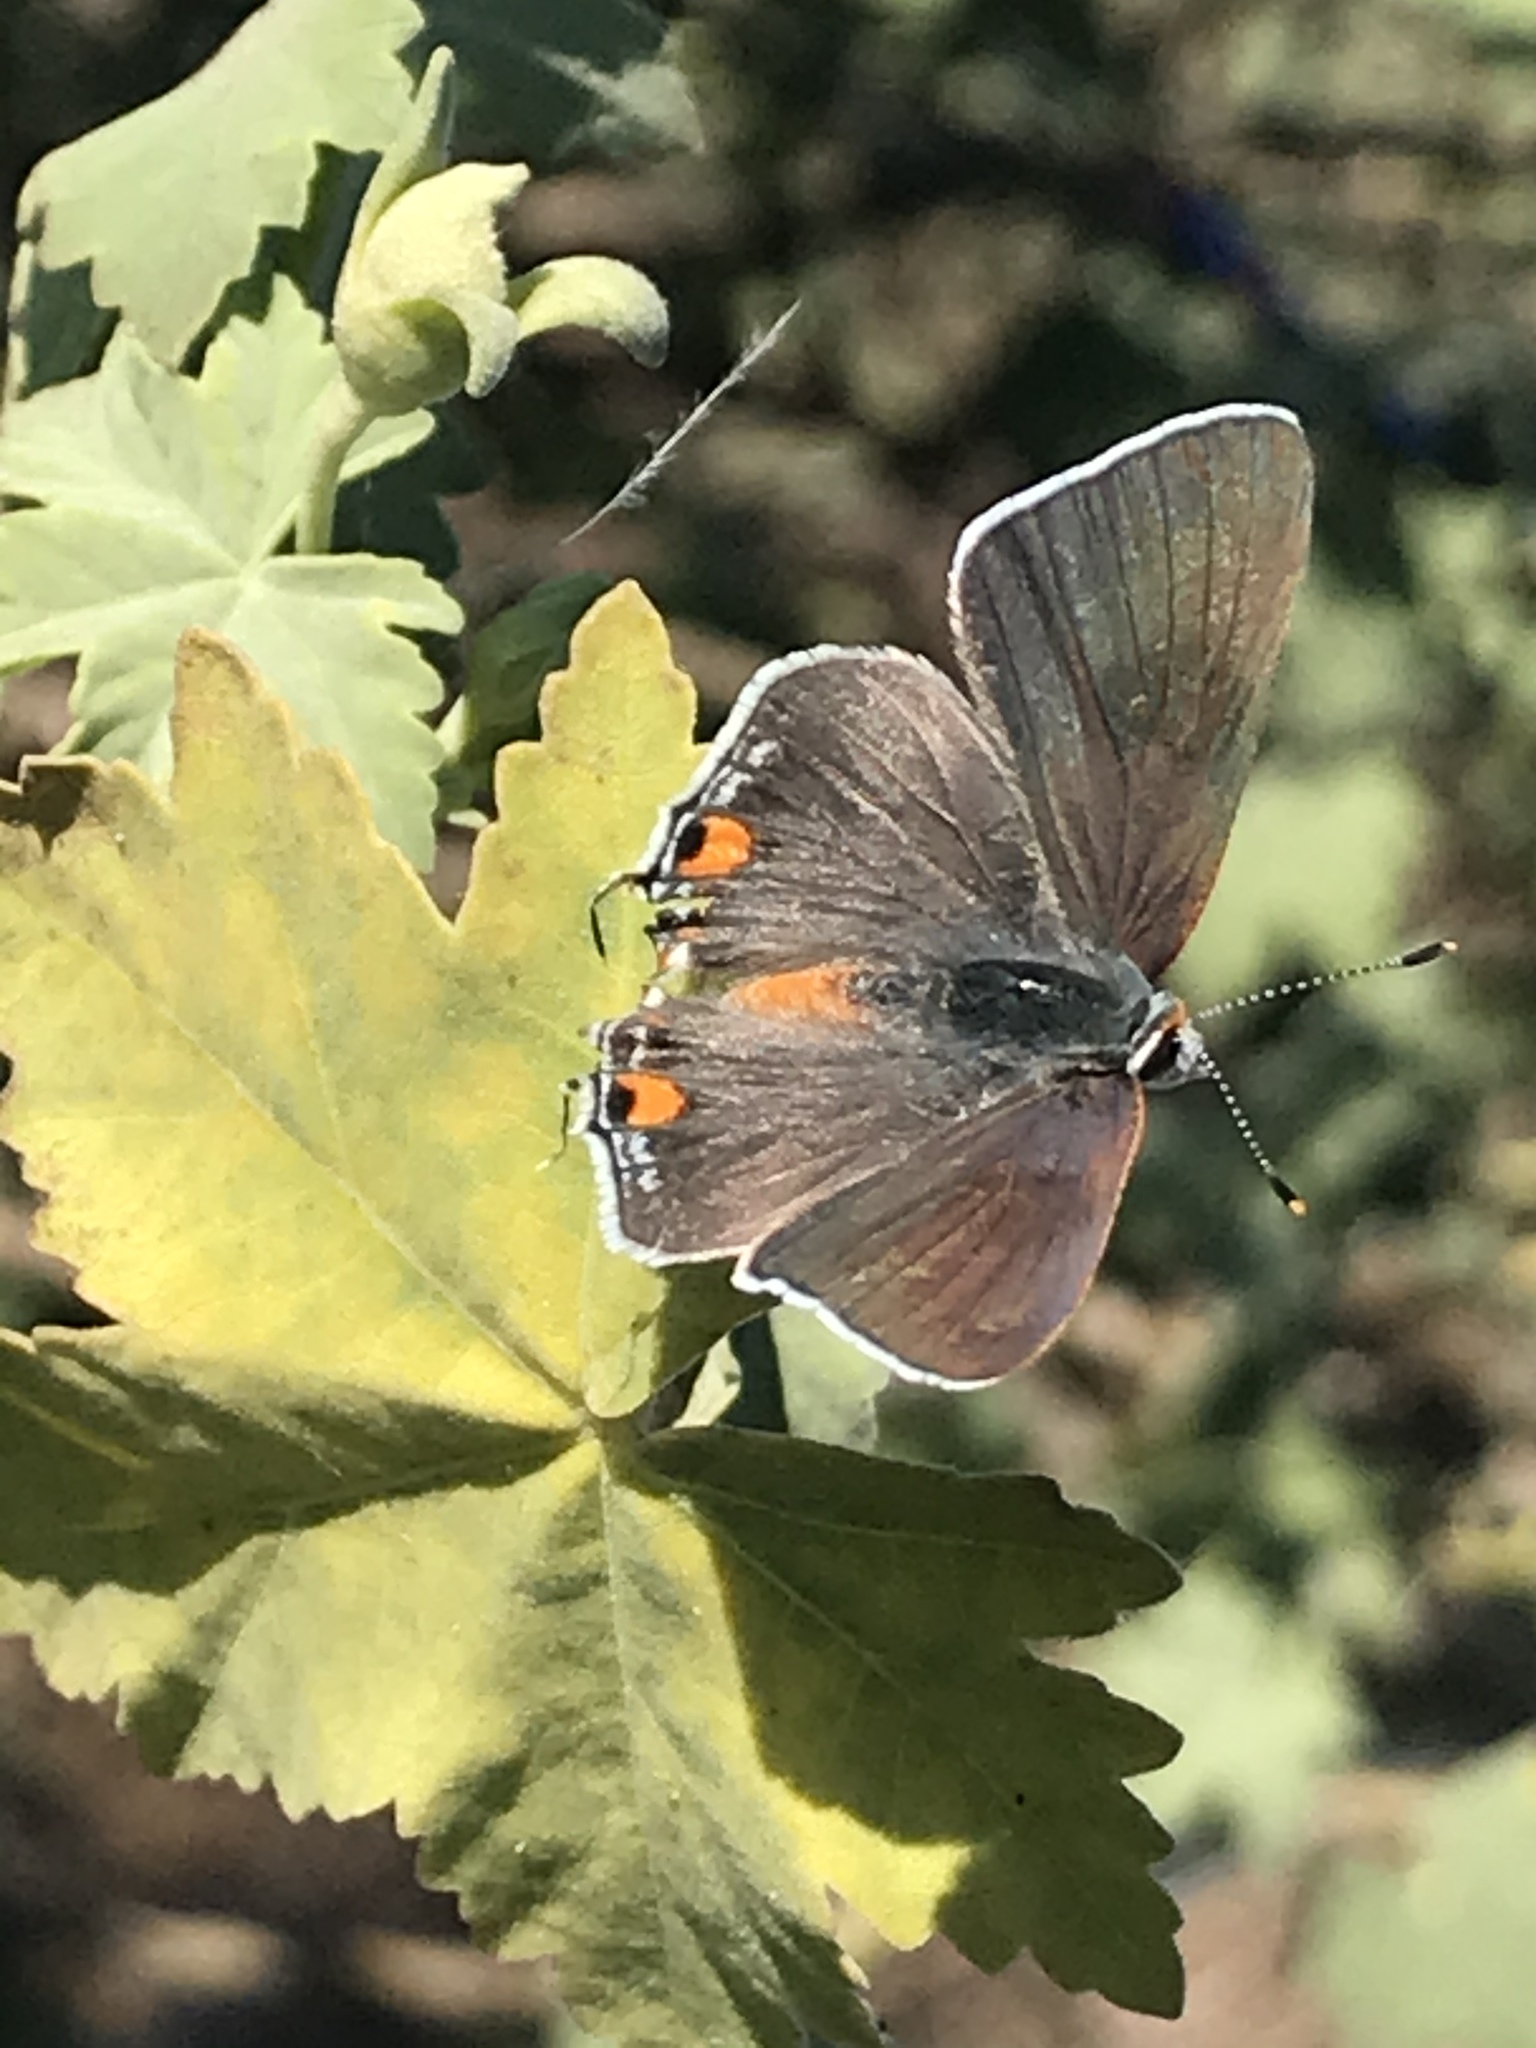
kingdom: Animalia
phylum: Arthropoda
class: Insecta
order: Lepidoptera
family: Lycaenidae
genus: Strymon
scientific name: Strymon melinus
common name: Gray hairstreak
